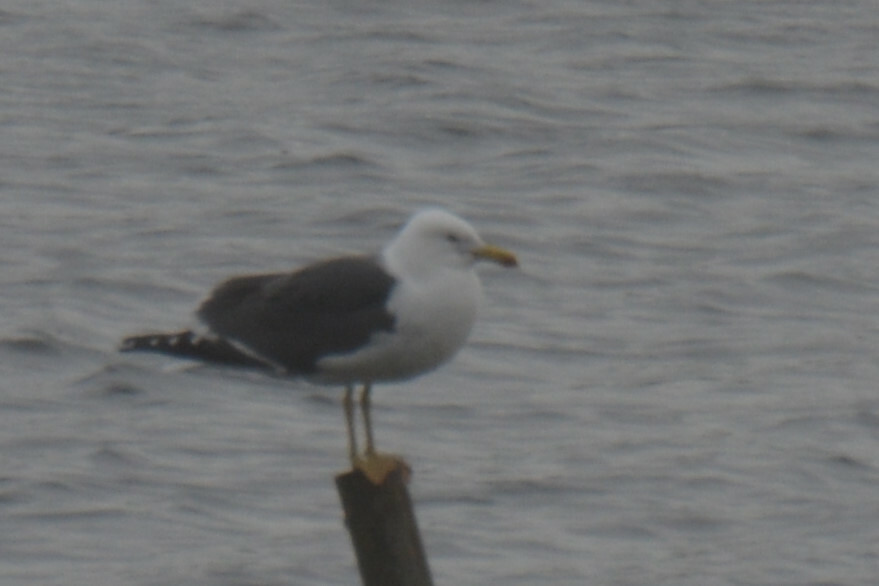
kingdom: Animalia
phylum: Chordata
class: Aves
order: Charadriiformes
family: Laridae
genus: Larus
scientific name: Larus fuscus
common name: Lesser black-backed gull
